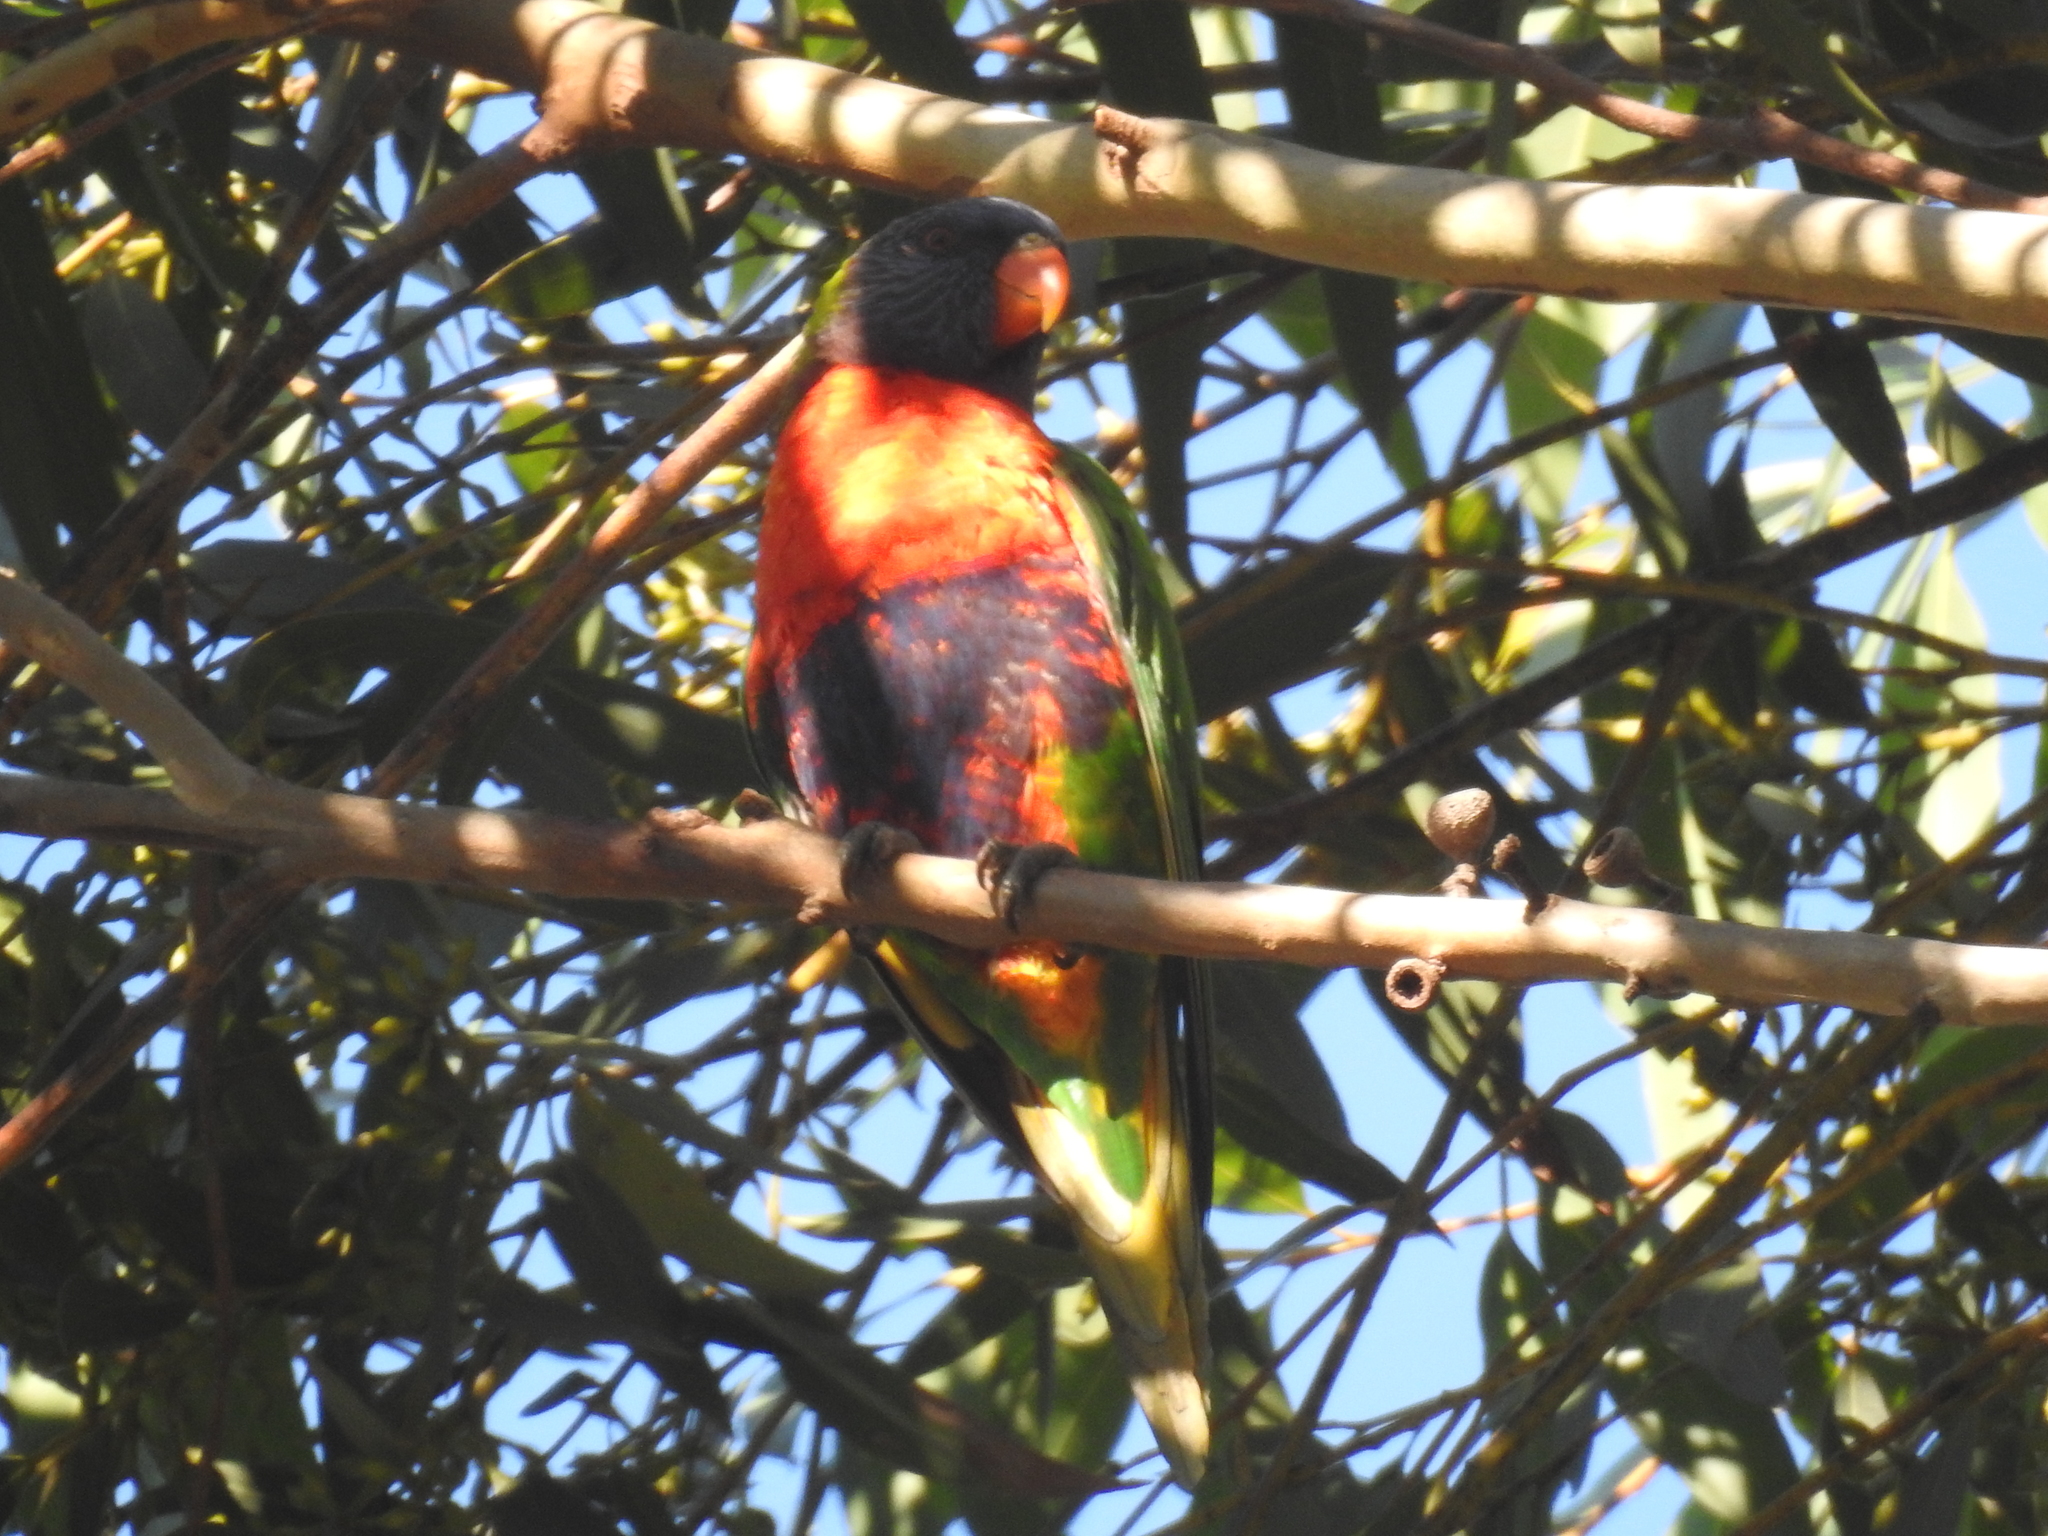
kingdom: Animalia
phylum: Chordata
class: Aves
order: Psittaciformes
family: Psittacidae
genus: Trichoglossus
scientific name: Trichoglossus haematodus
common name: Coconut lorikeet
